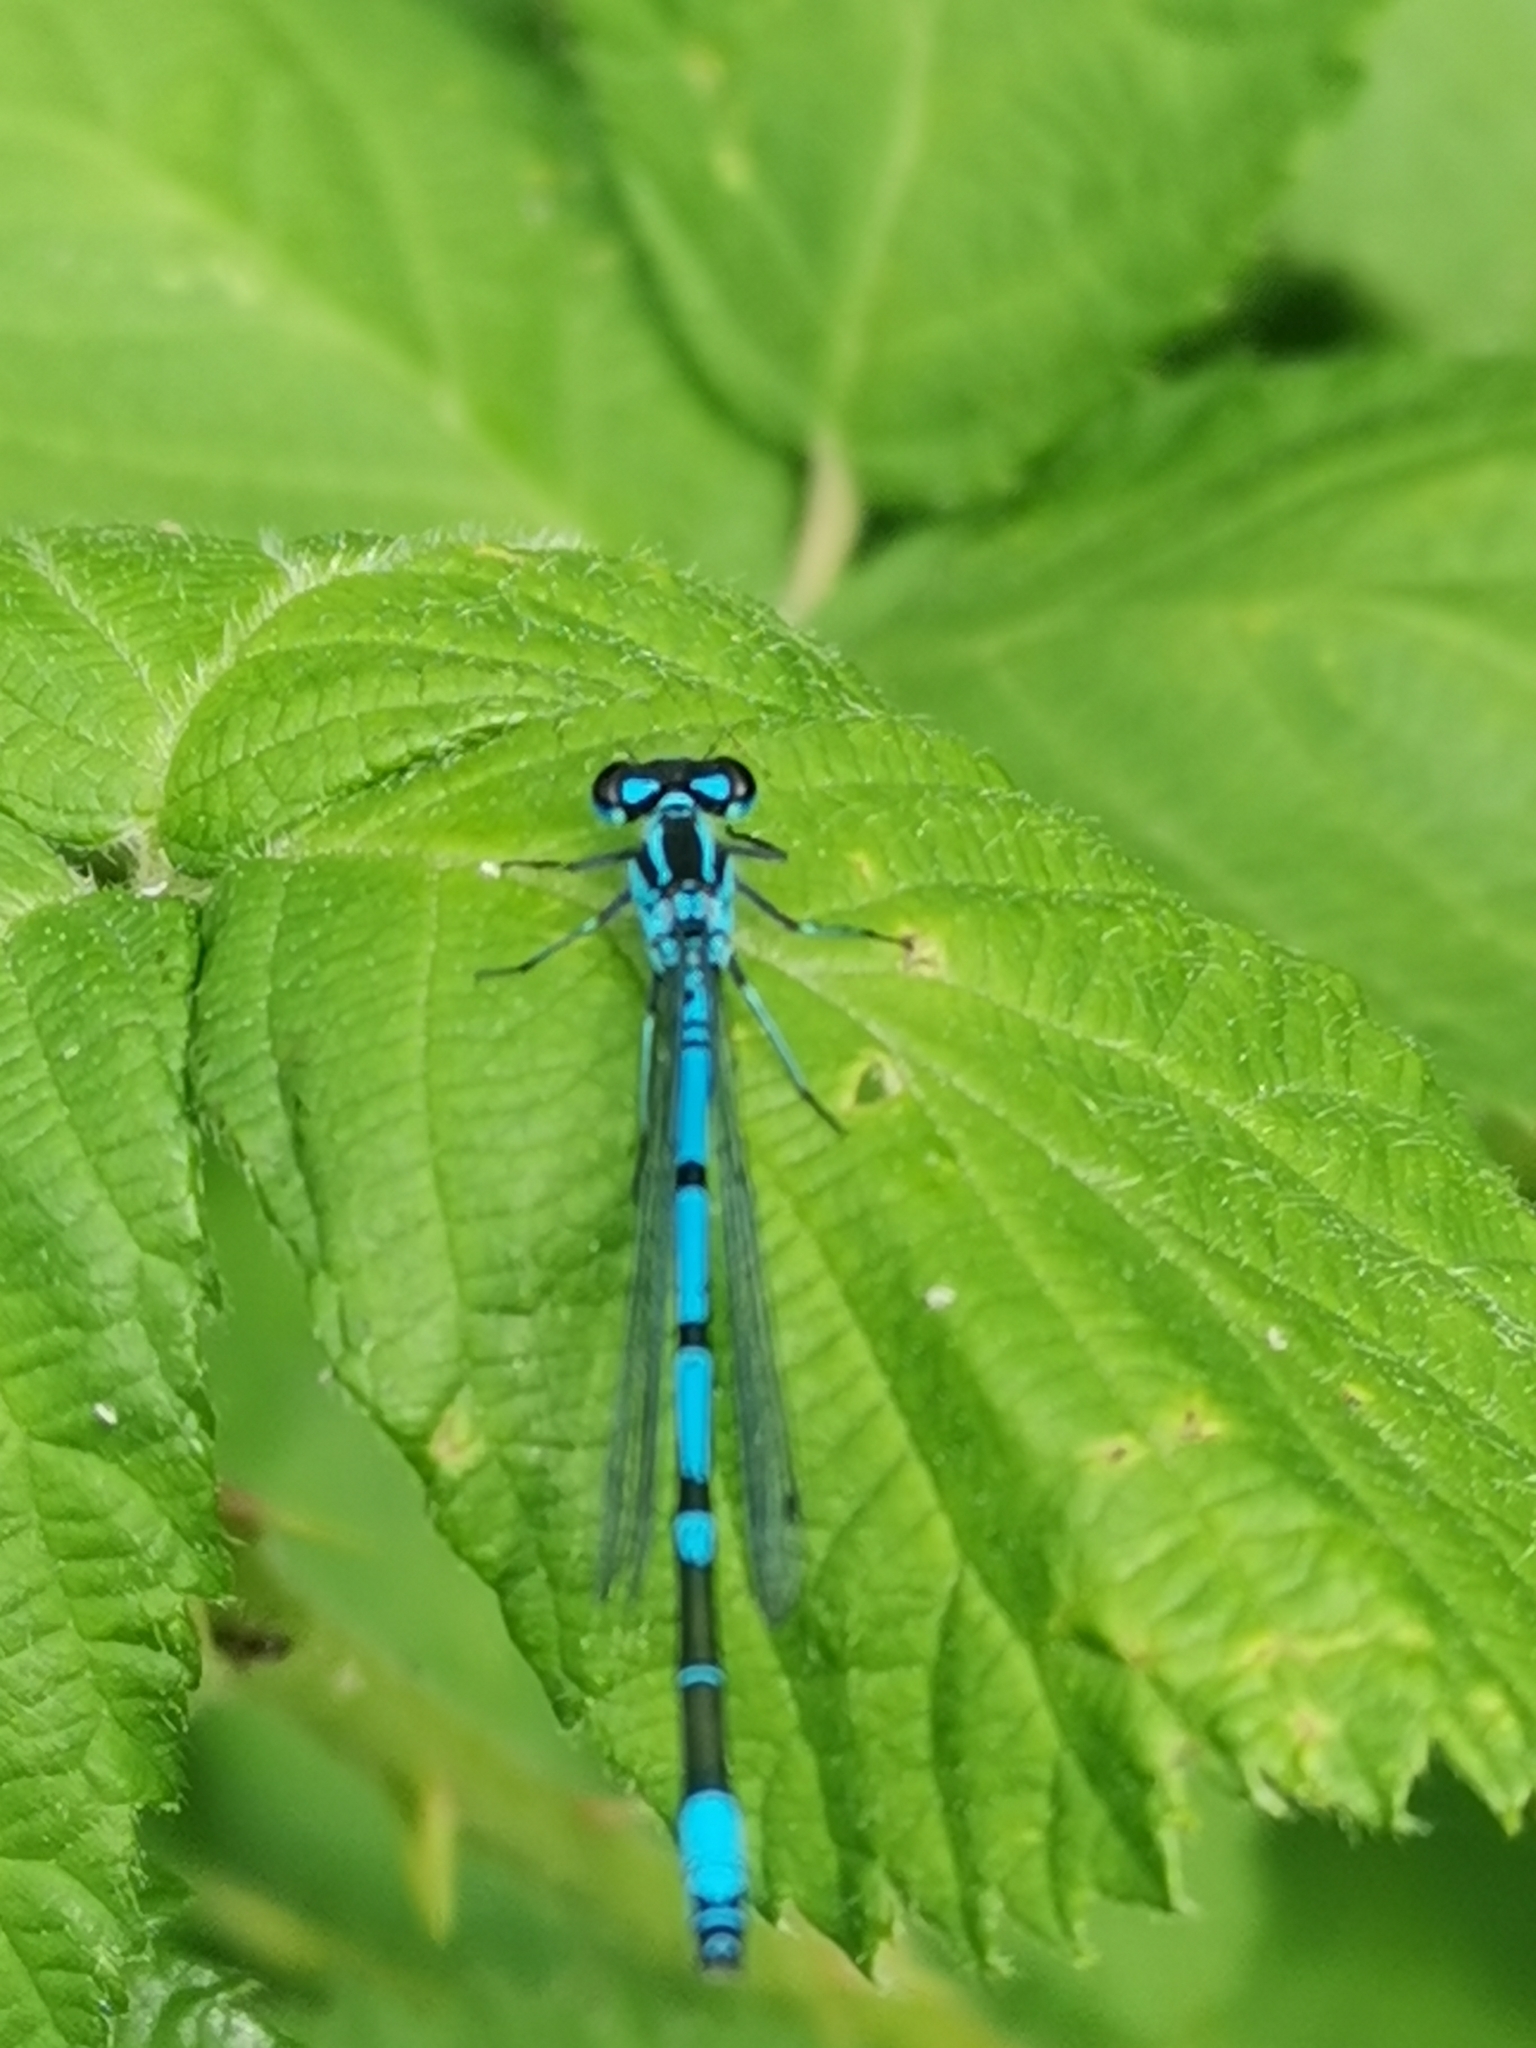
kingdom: Animalia
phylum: Arthropoda
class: Insecta
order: Odonata
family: Coenagrionidae
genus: Coenagrion
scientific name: Coenagrion puella
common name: Azure damselfly
